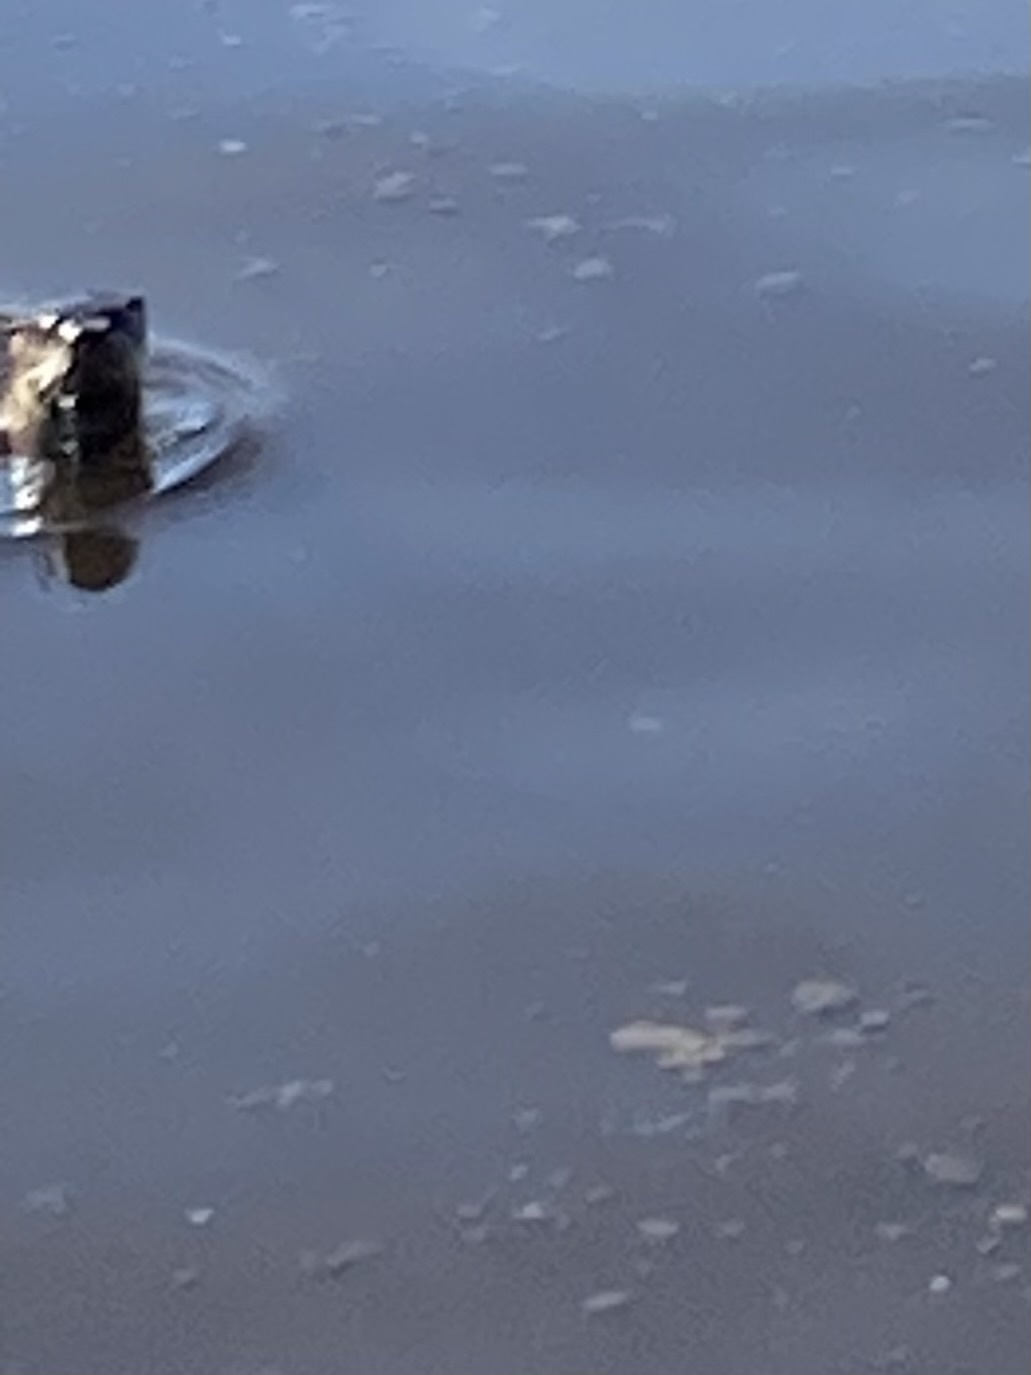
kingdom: Animalia
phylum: Chordata
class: Mammalia
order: Carnivora
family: Mustelidae
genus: Lontra
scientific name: Lontra canadensis
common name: North american river otter
